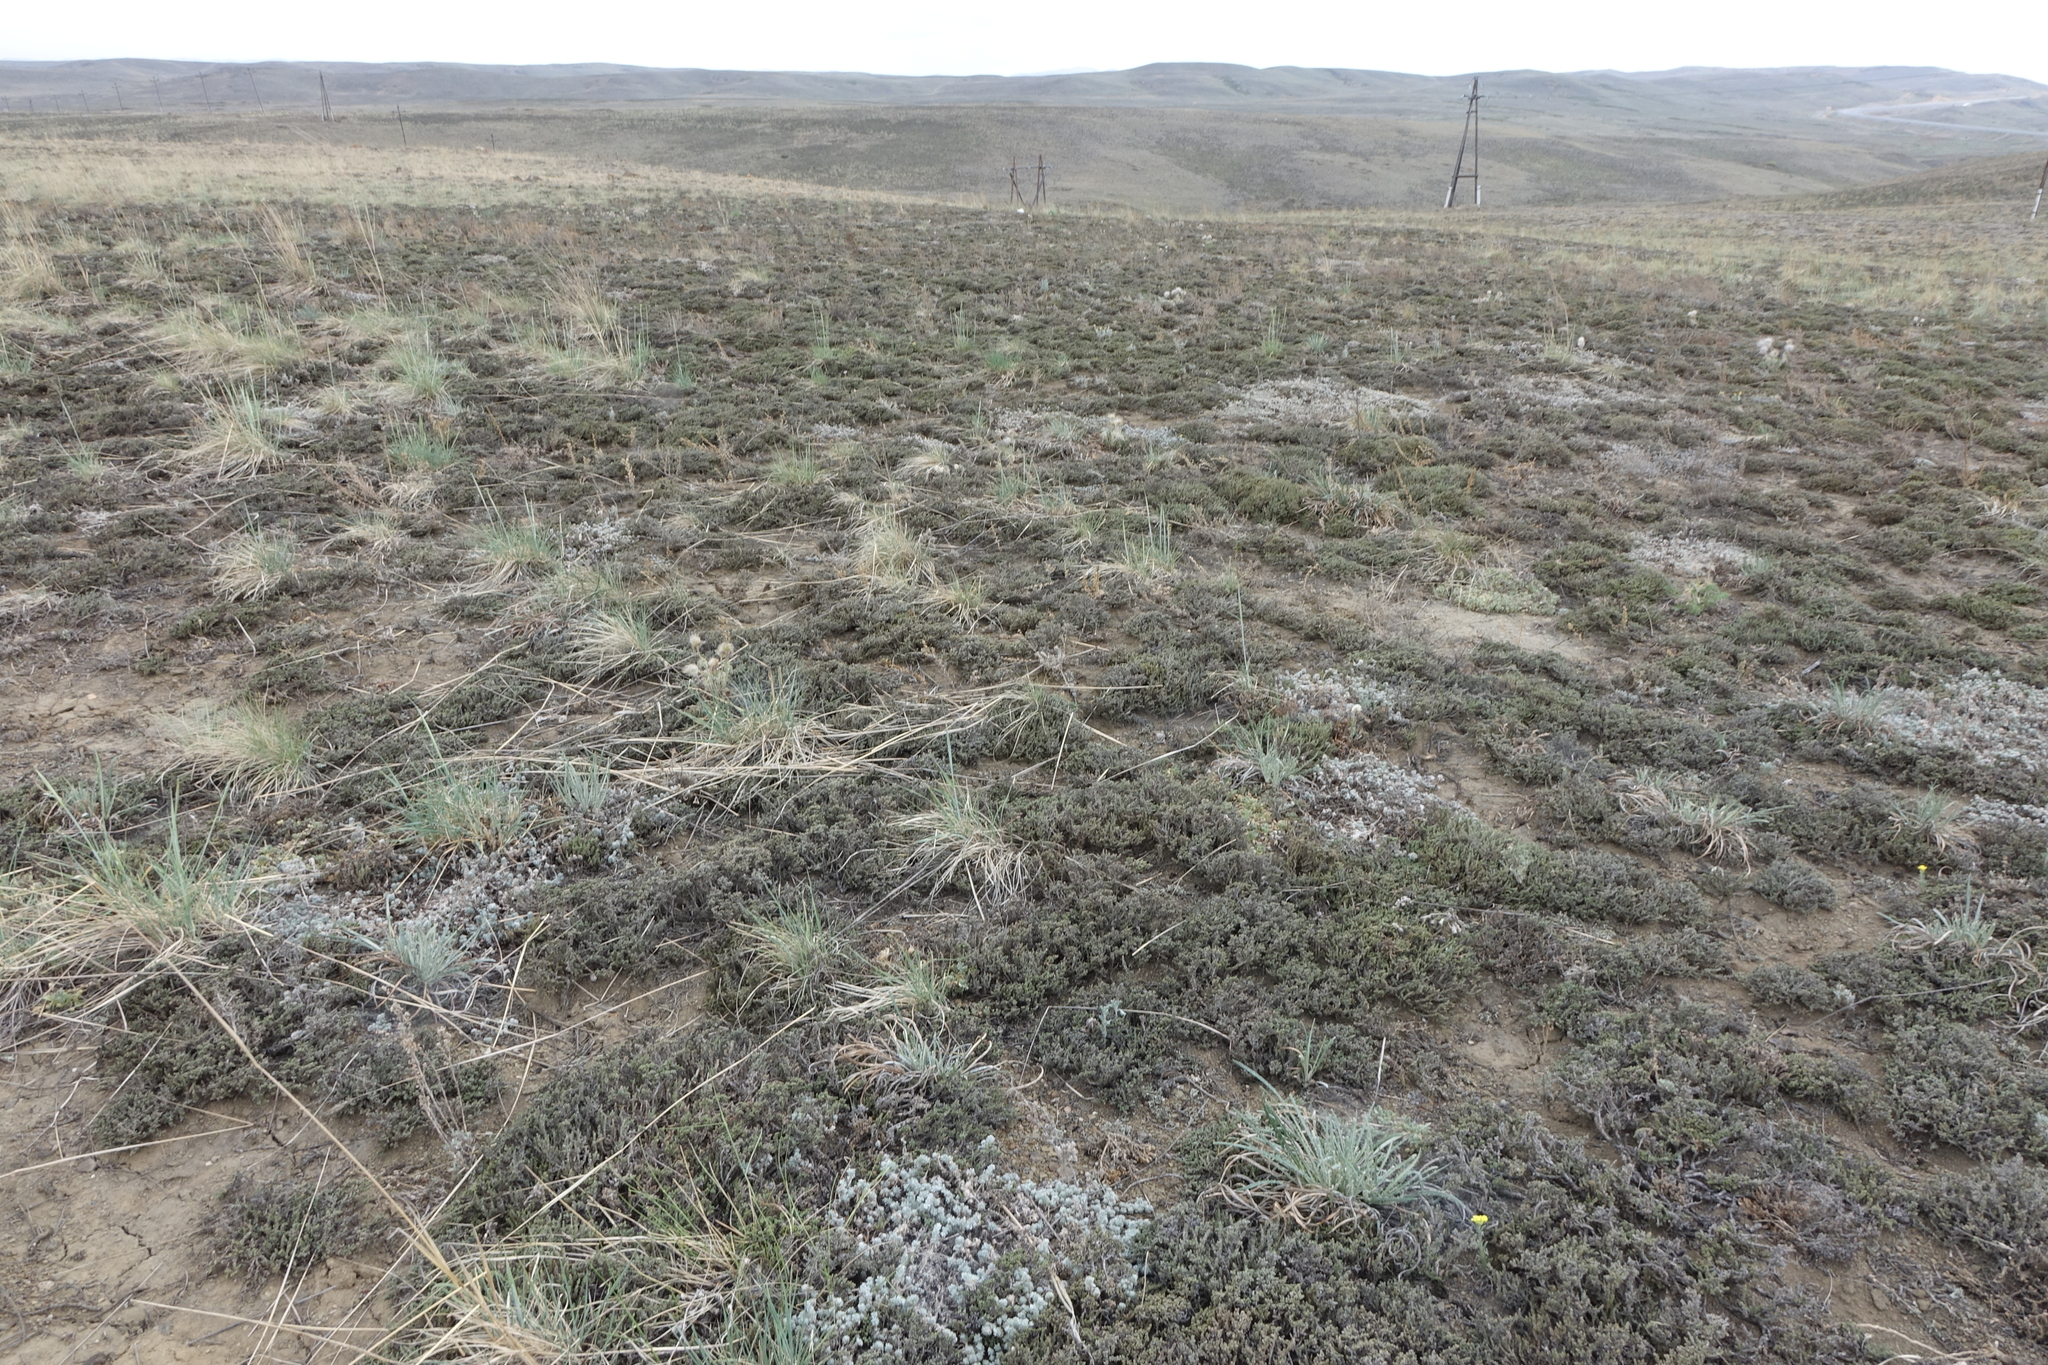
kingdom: Plantae
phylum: Tracheophyta
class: Magnoliopsida
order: Caryophyllales
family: Amaranthaceae
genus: Nanophyton
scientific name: Nanophyton grubovii
